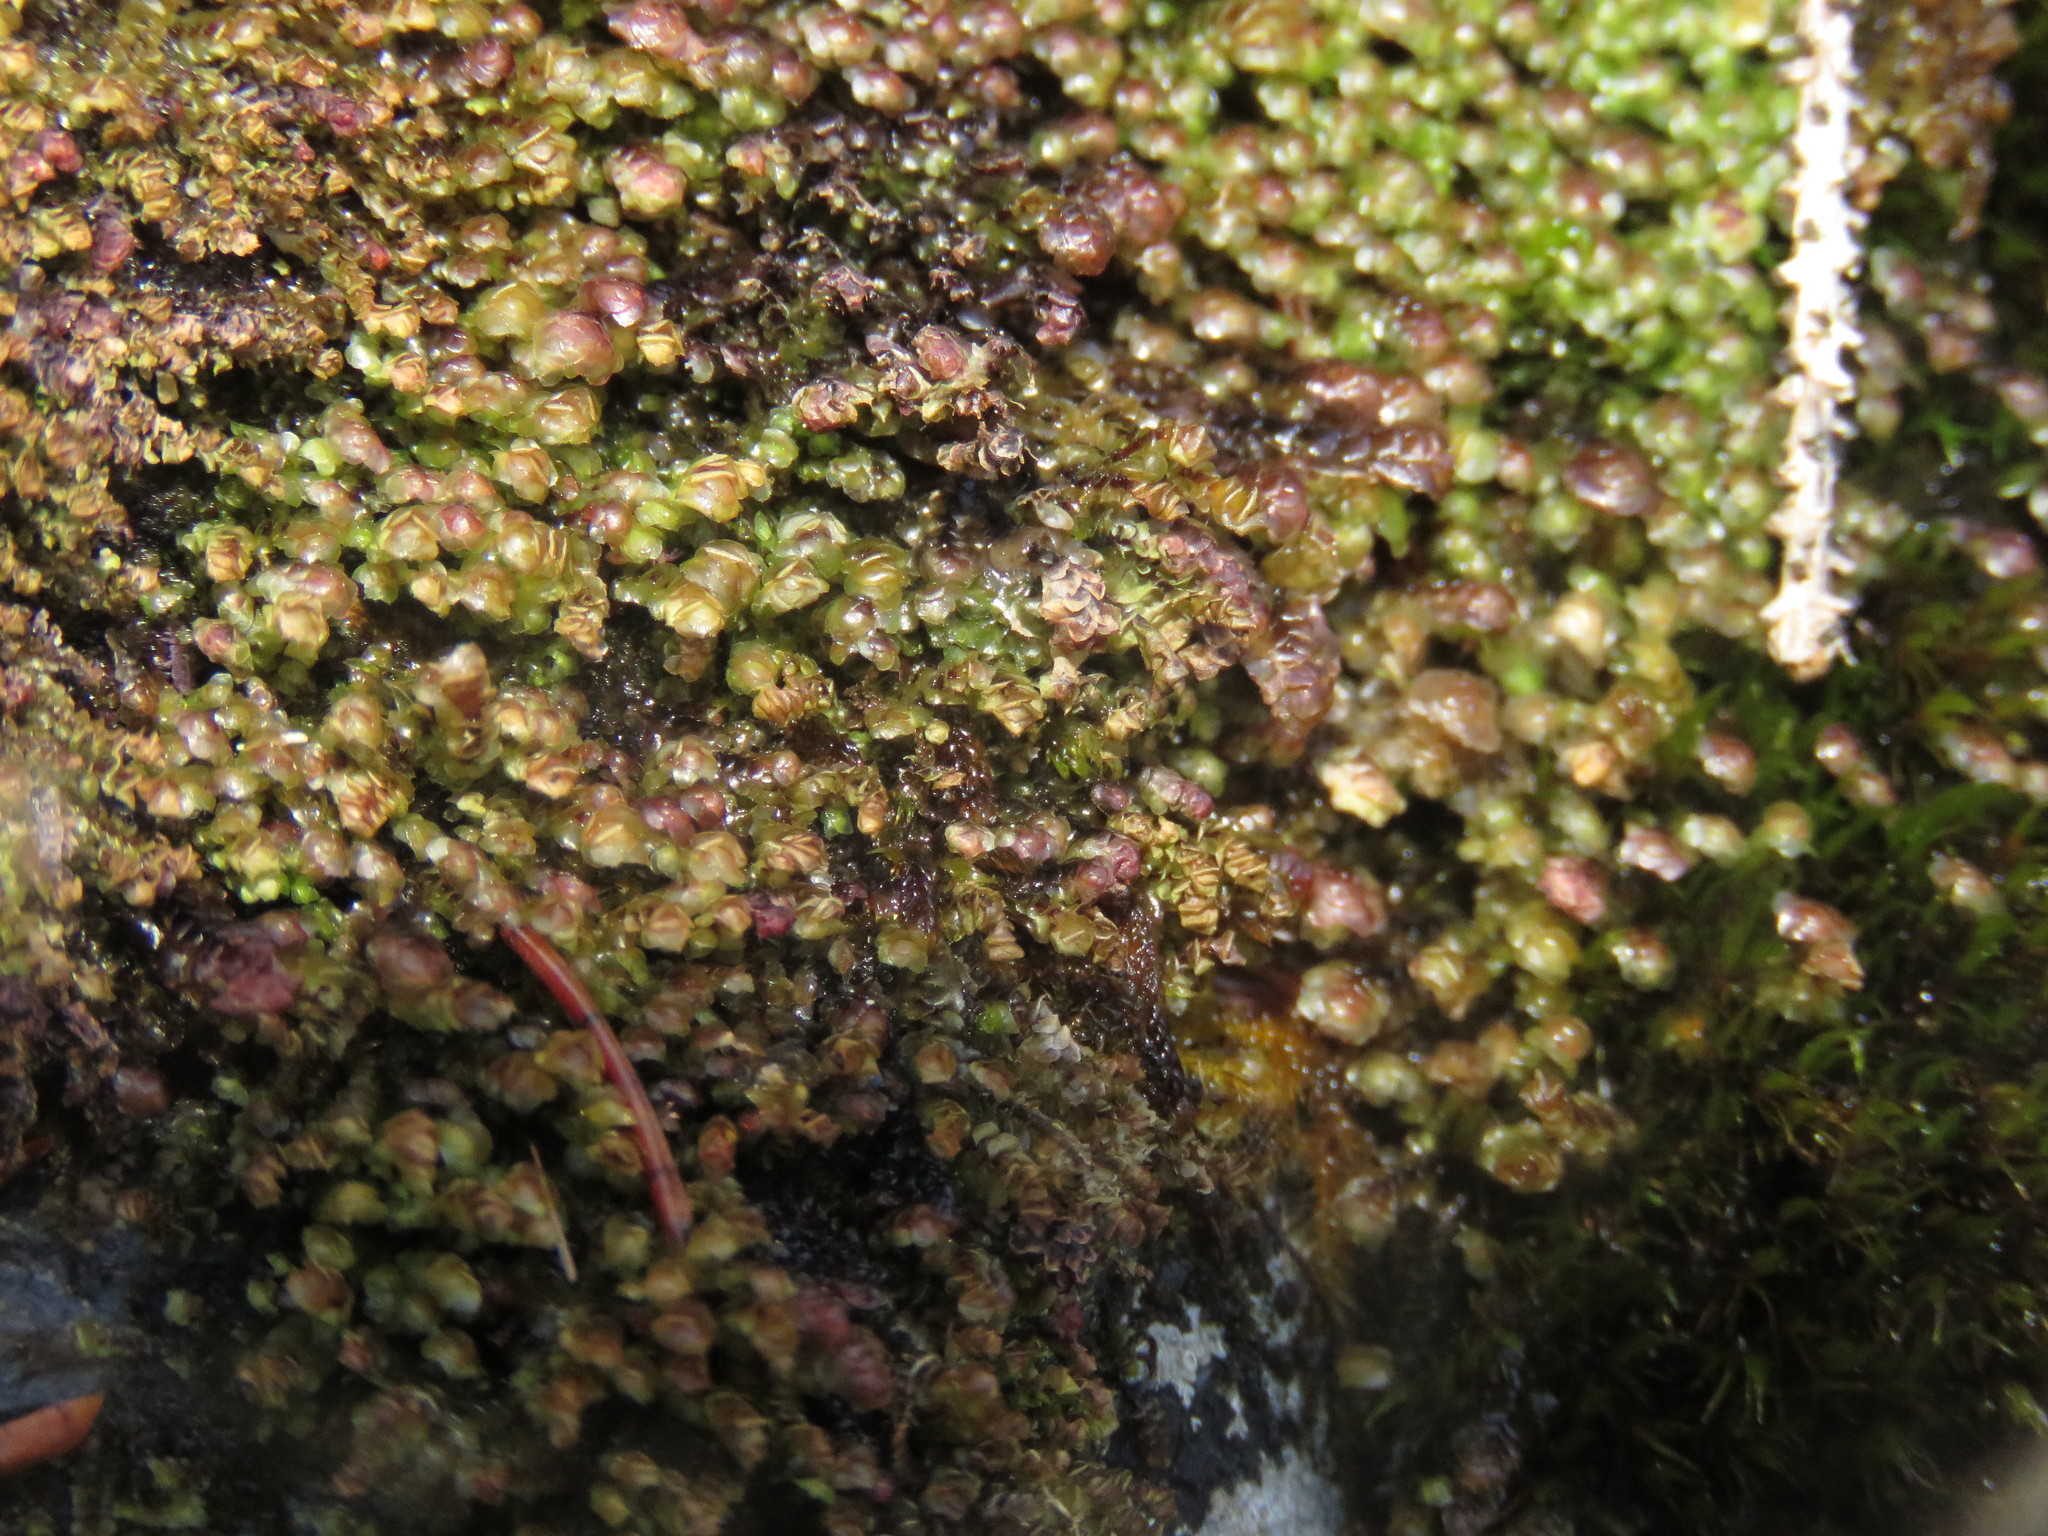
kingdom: Plantae
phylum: Marchantiophyta
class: Jungermanniopsida
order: Jungermanniales
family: Scapaniaceae
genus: Scapania
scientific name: Scapania bolanderi
